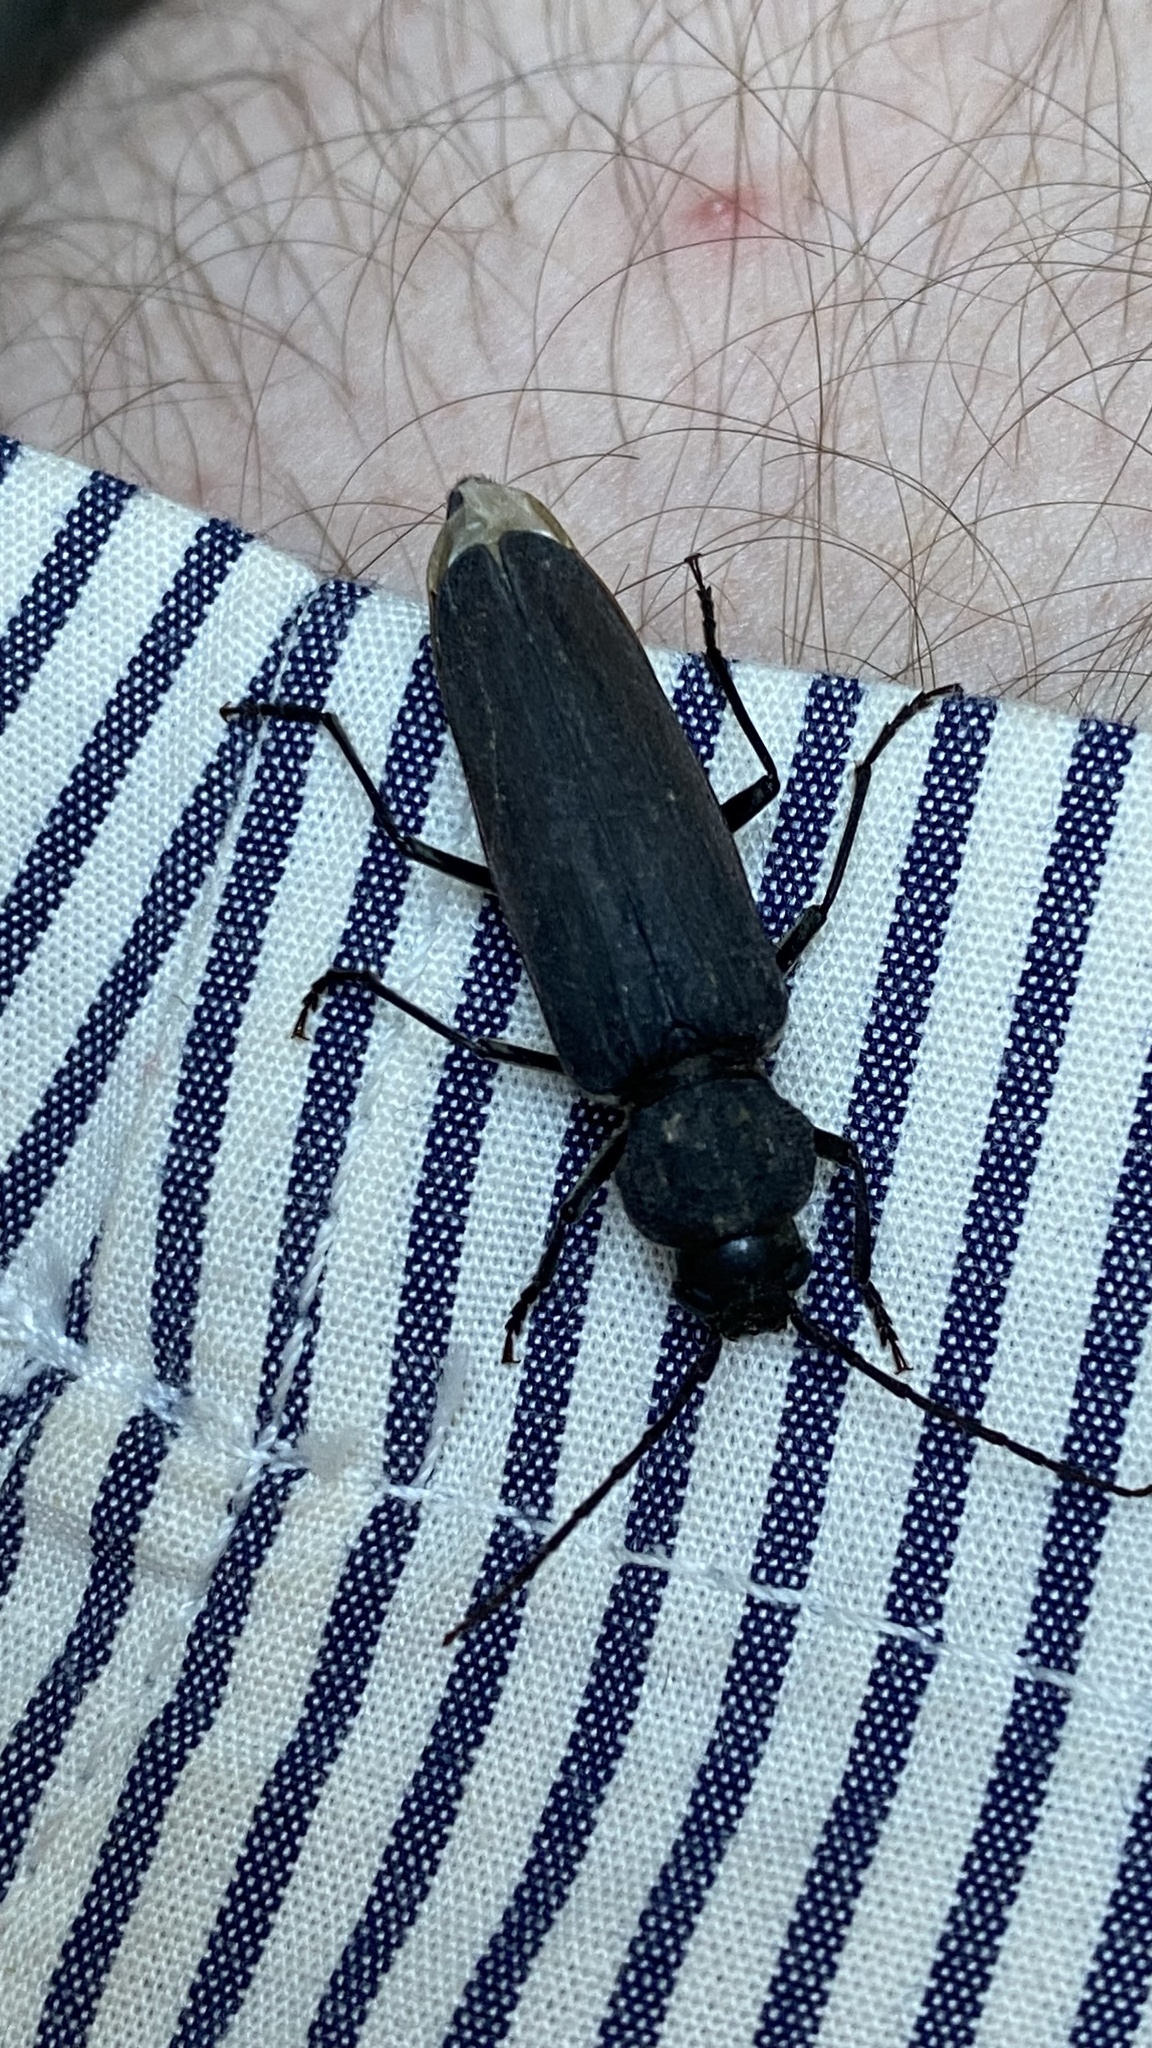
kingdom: Animalia
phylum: Arthropoda
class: Insecta
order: Coleoptera
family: Cerambycidae
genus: Arhopalus
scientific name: Arhopalus asperatus
